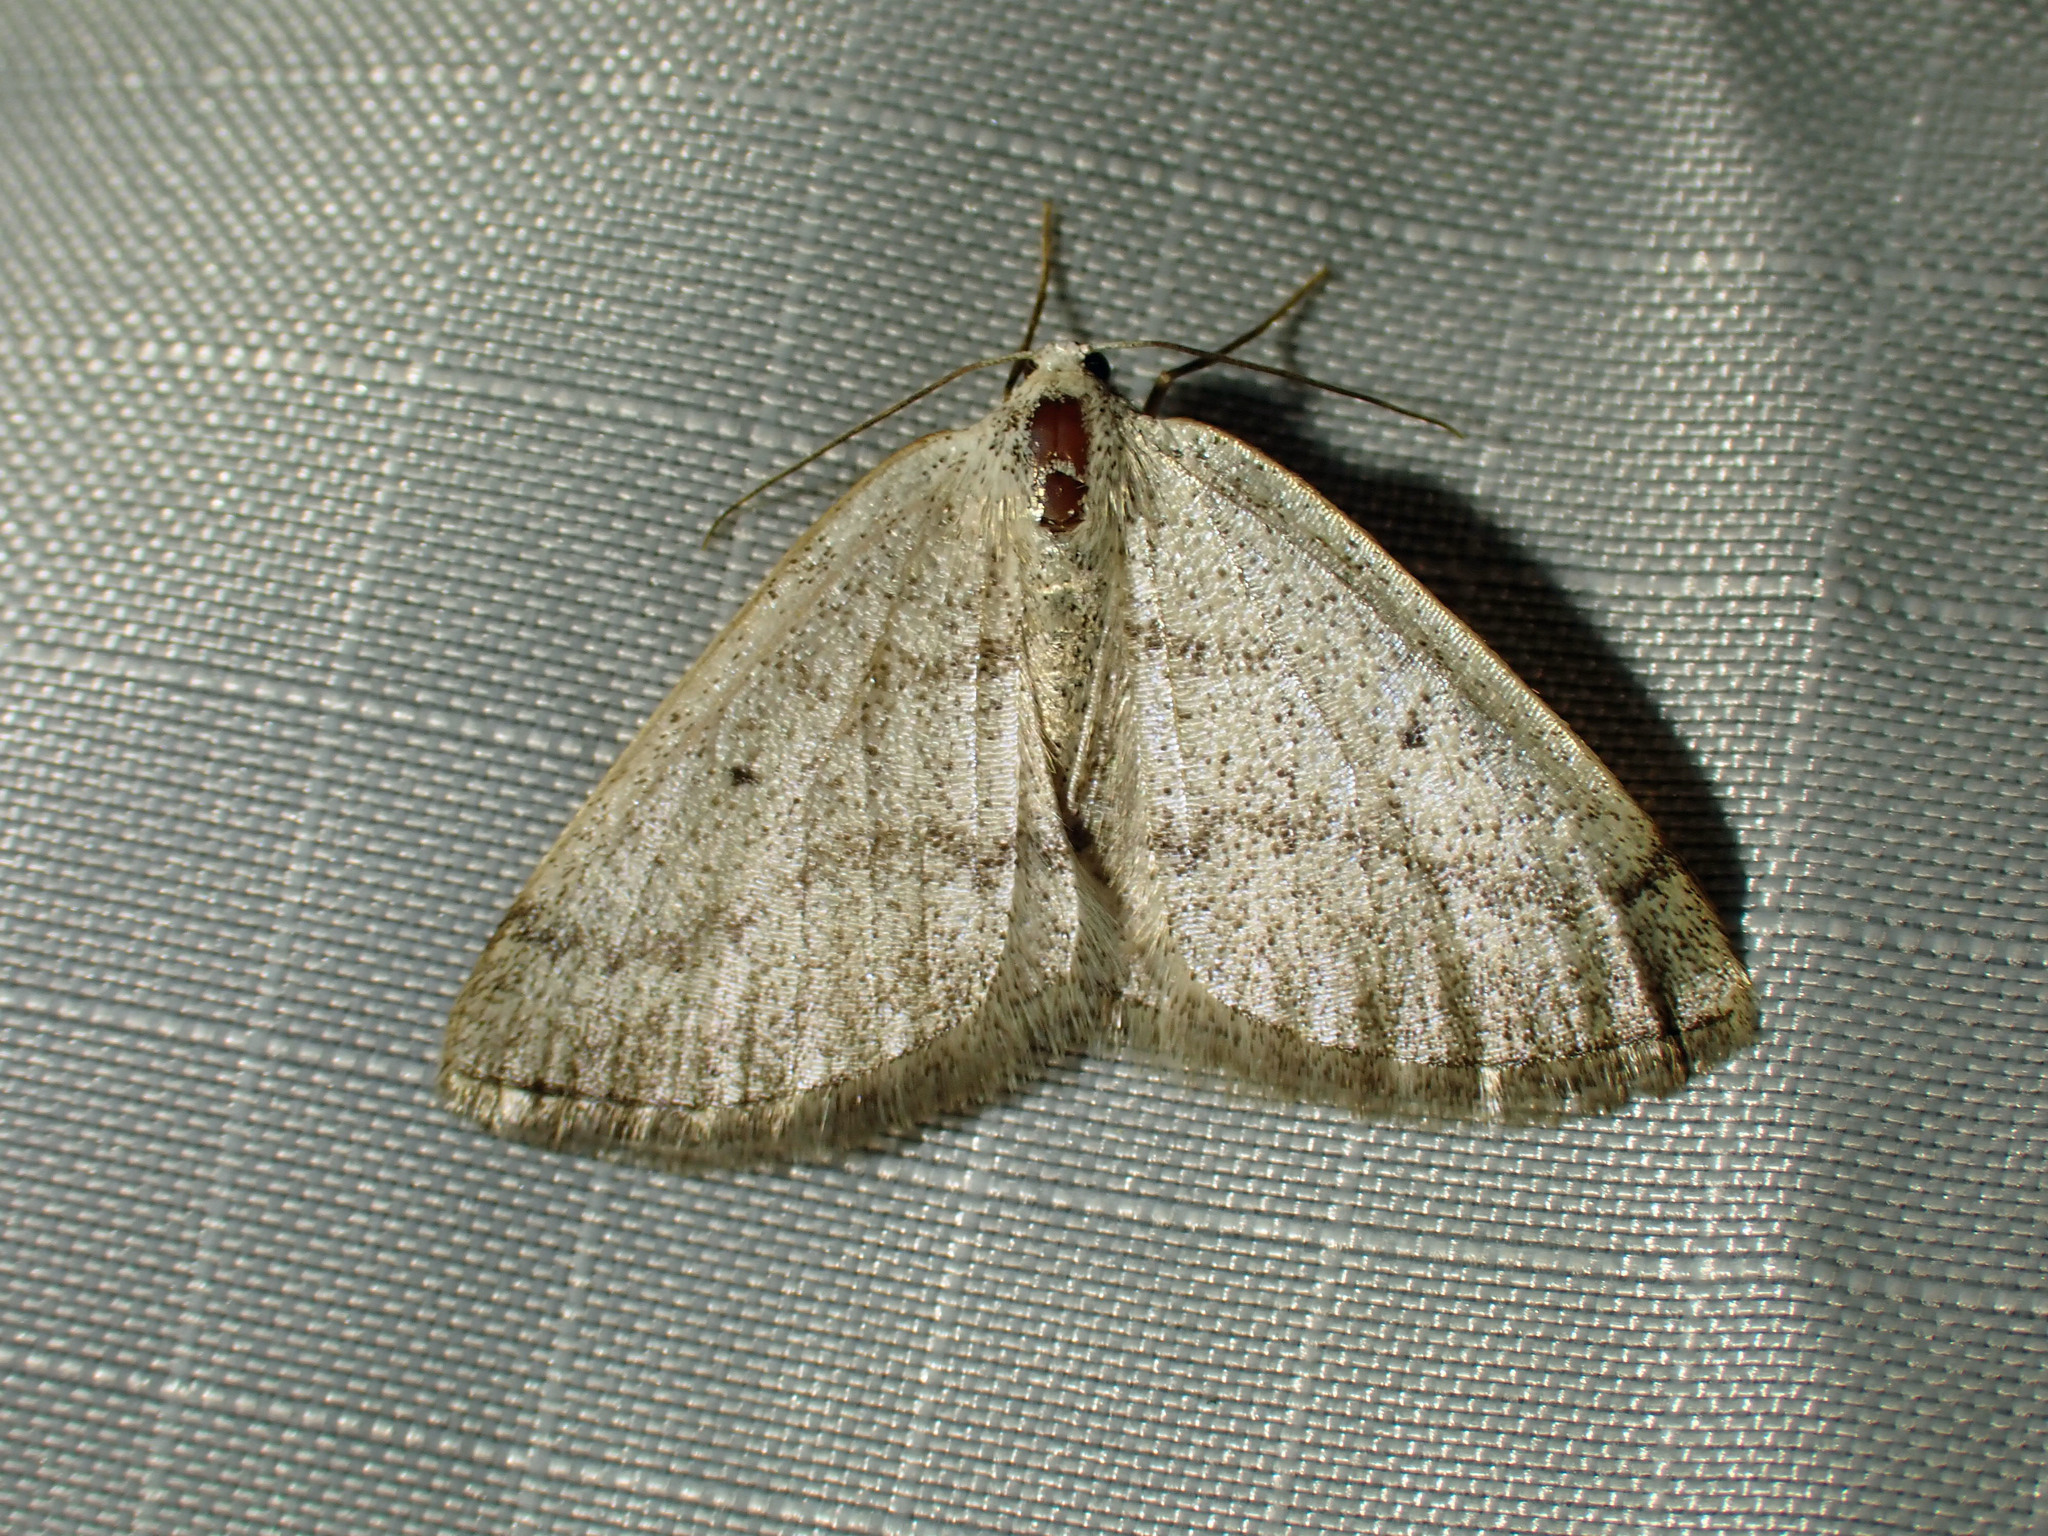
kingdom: Animalia
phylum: Arthropoda
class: Insecta
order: Lepidoptera
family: Geometridae
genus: Lomographa
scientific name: Lomographa glomeraria
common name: Gray spring moth
